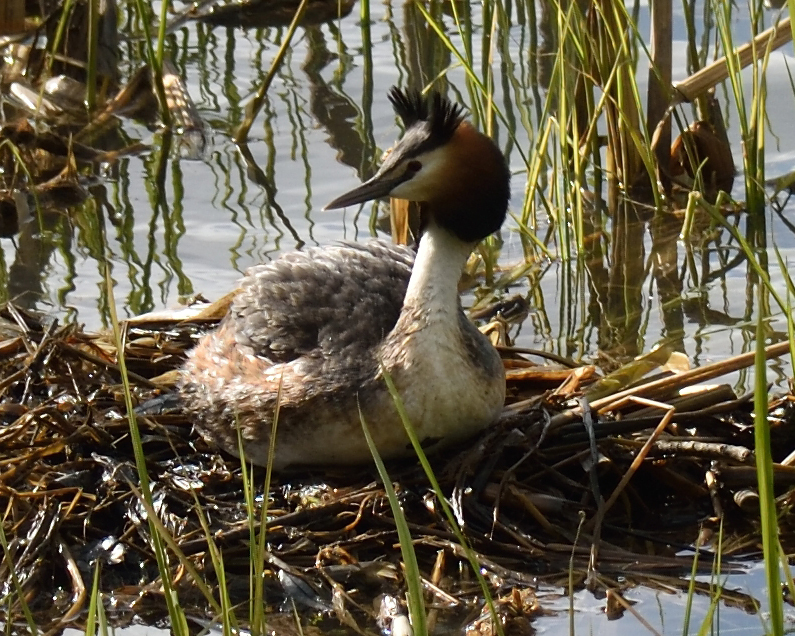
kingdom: Animalia
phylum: Chordata
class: Aves
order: Podicipediformes
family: Podicipedidae
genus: Podiceps
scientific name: Podiceps cristatus
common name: Great crested grebe
